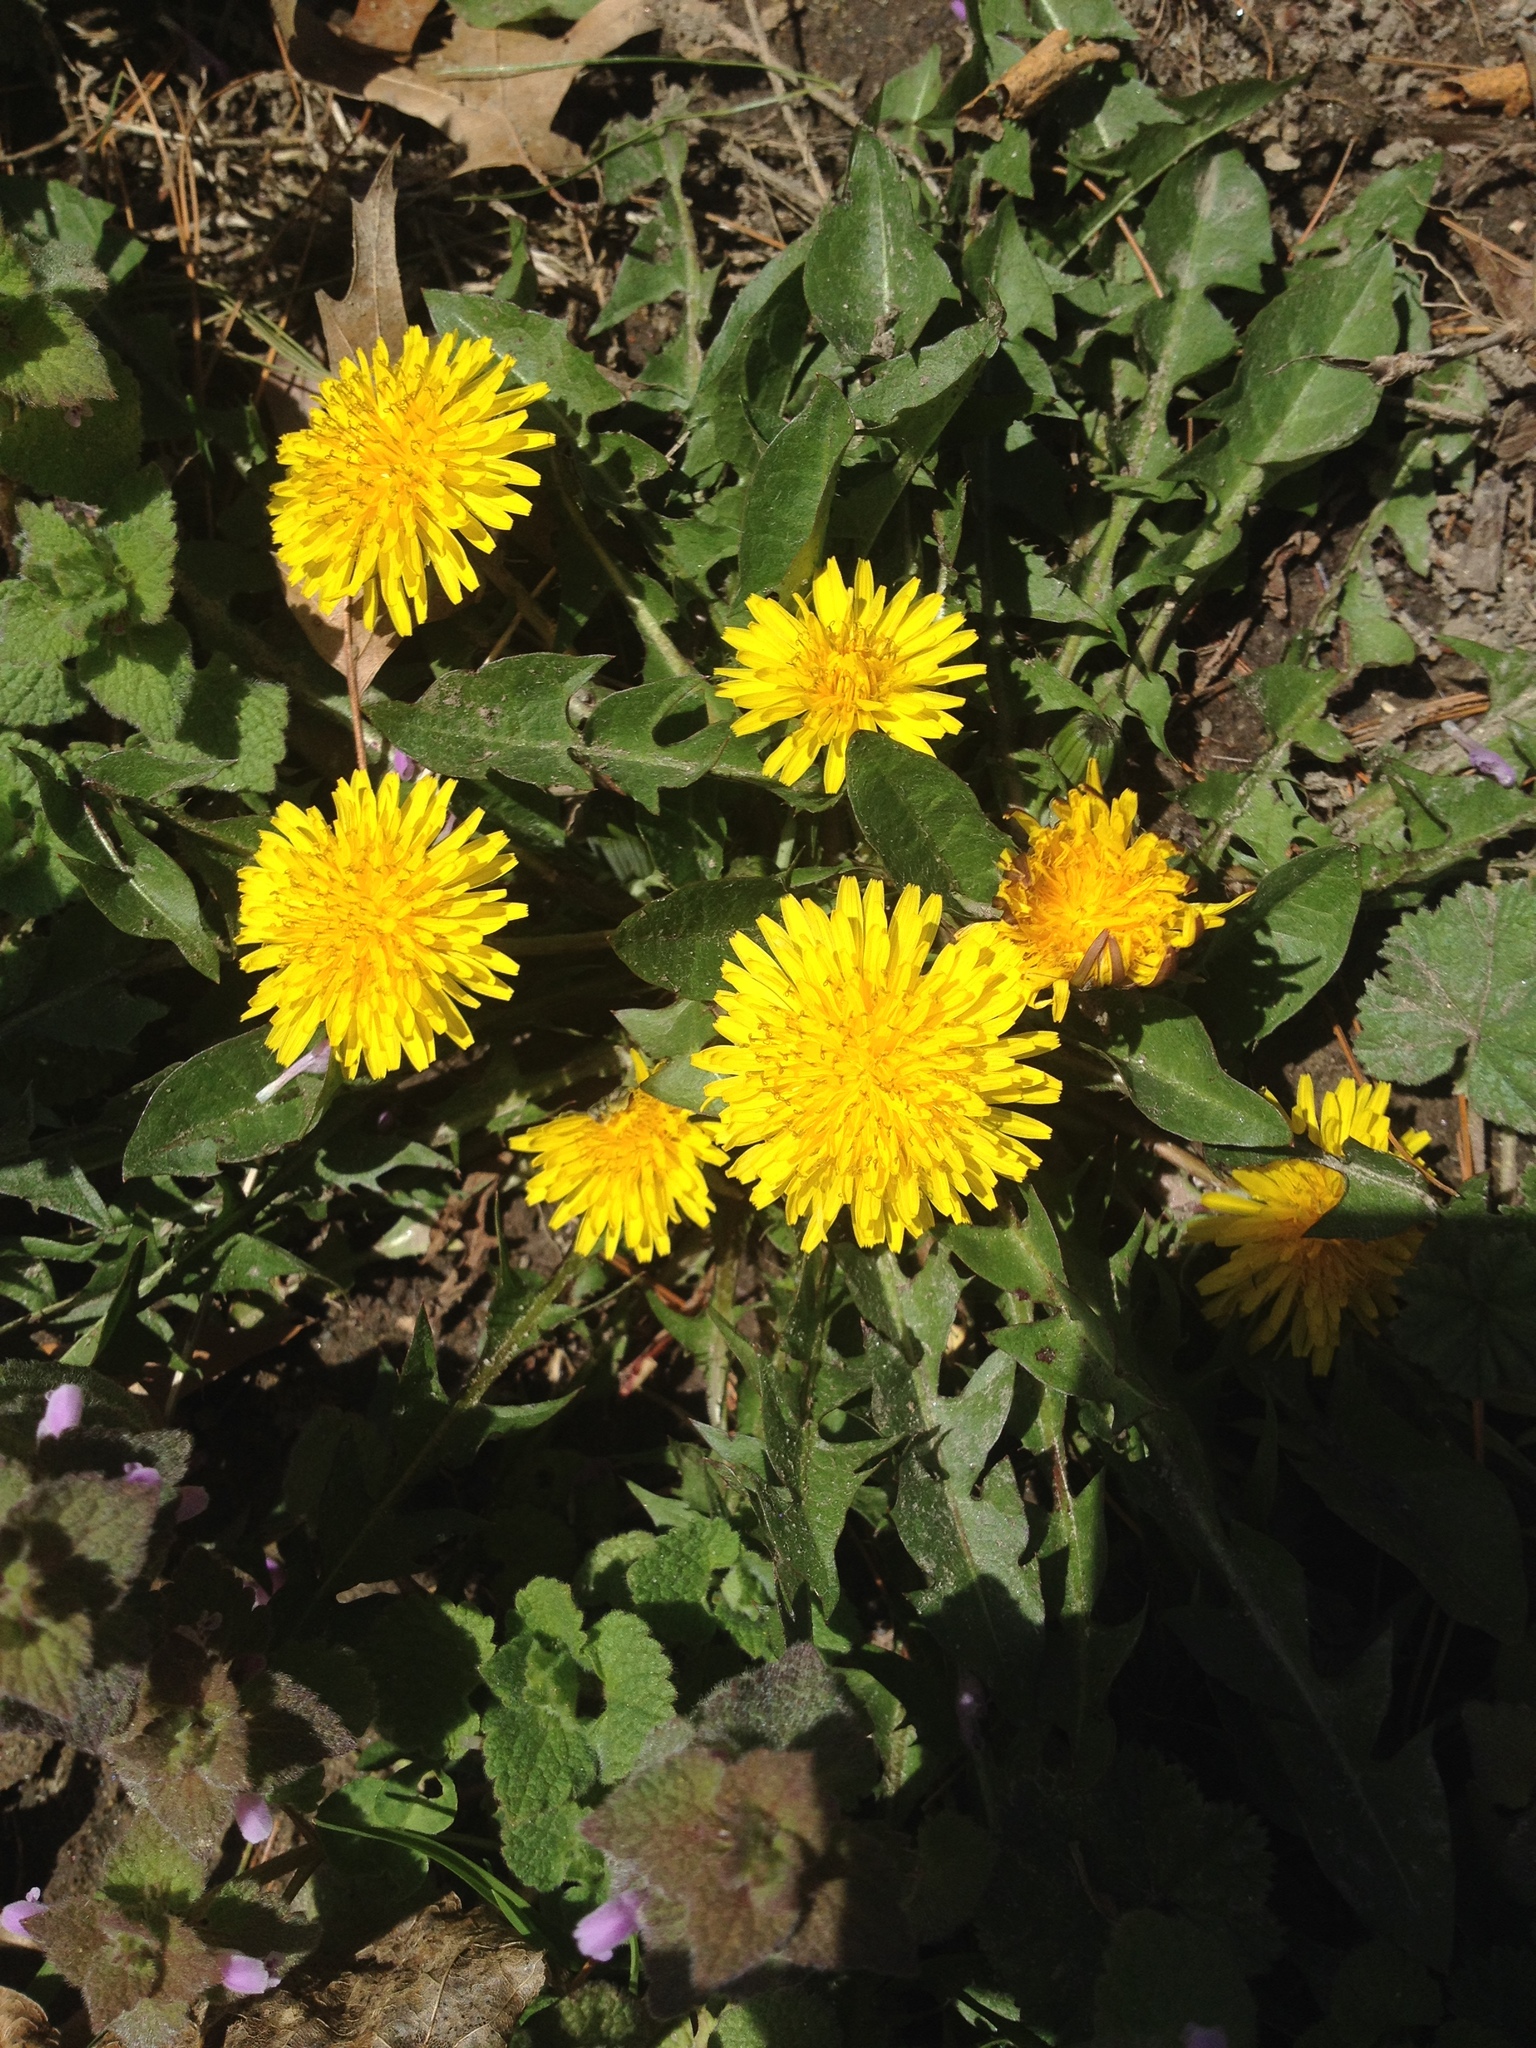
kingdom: Plantae
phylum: Tracheophyta
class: Magnoliopsida
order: Asterales
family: Asteraceae
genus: Taraxacum
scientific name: Taraxacum officinale
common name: Common dandelion
